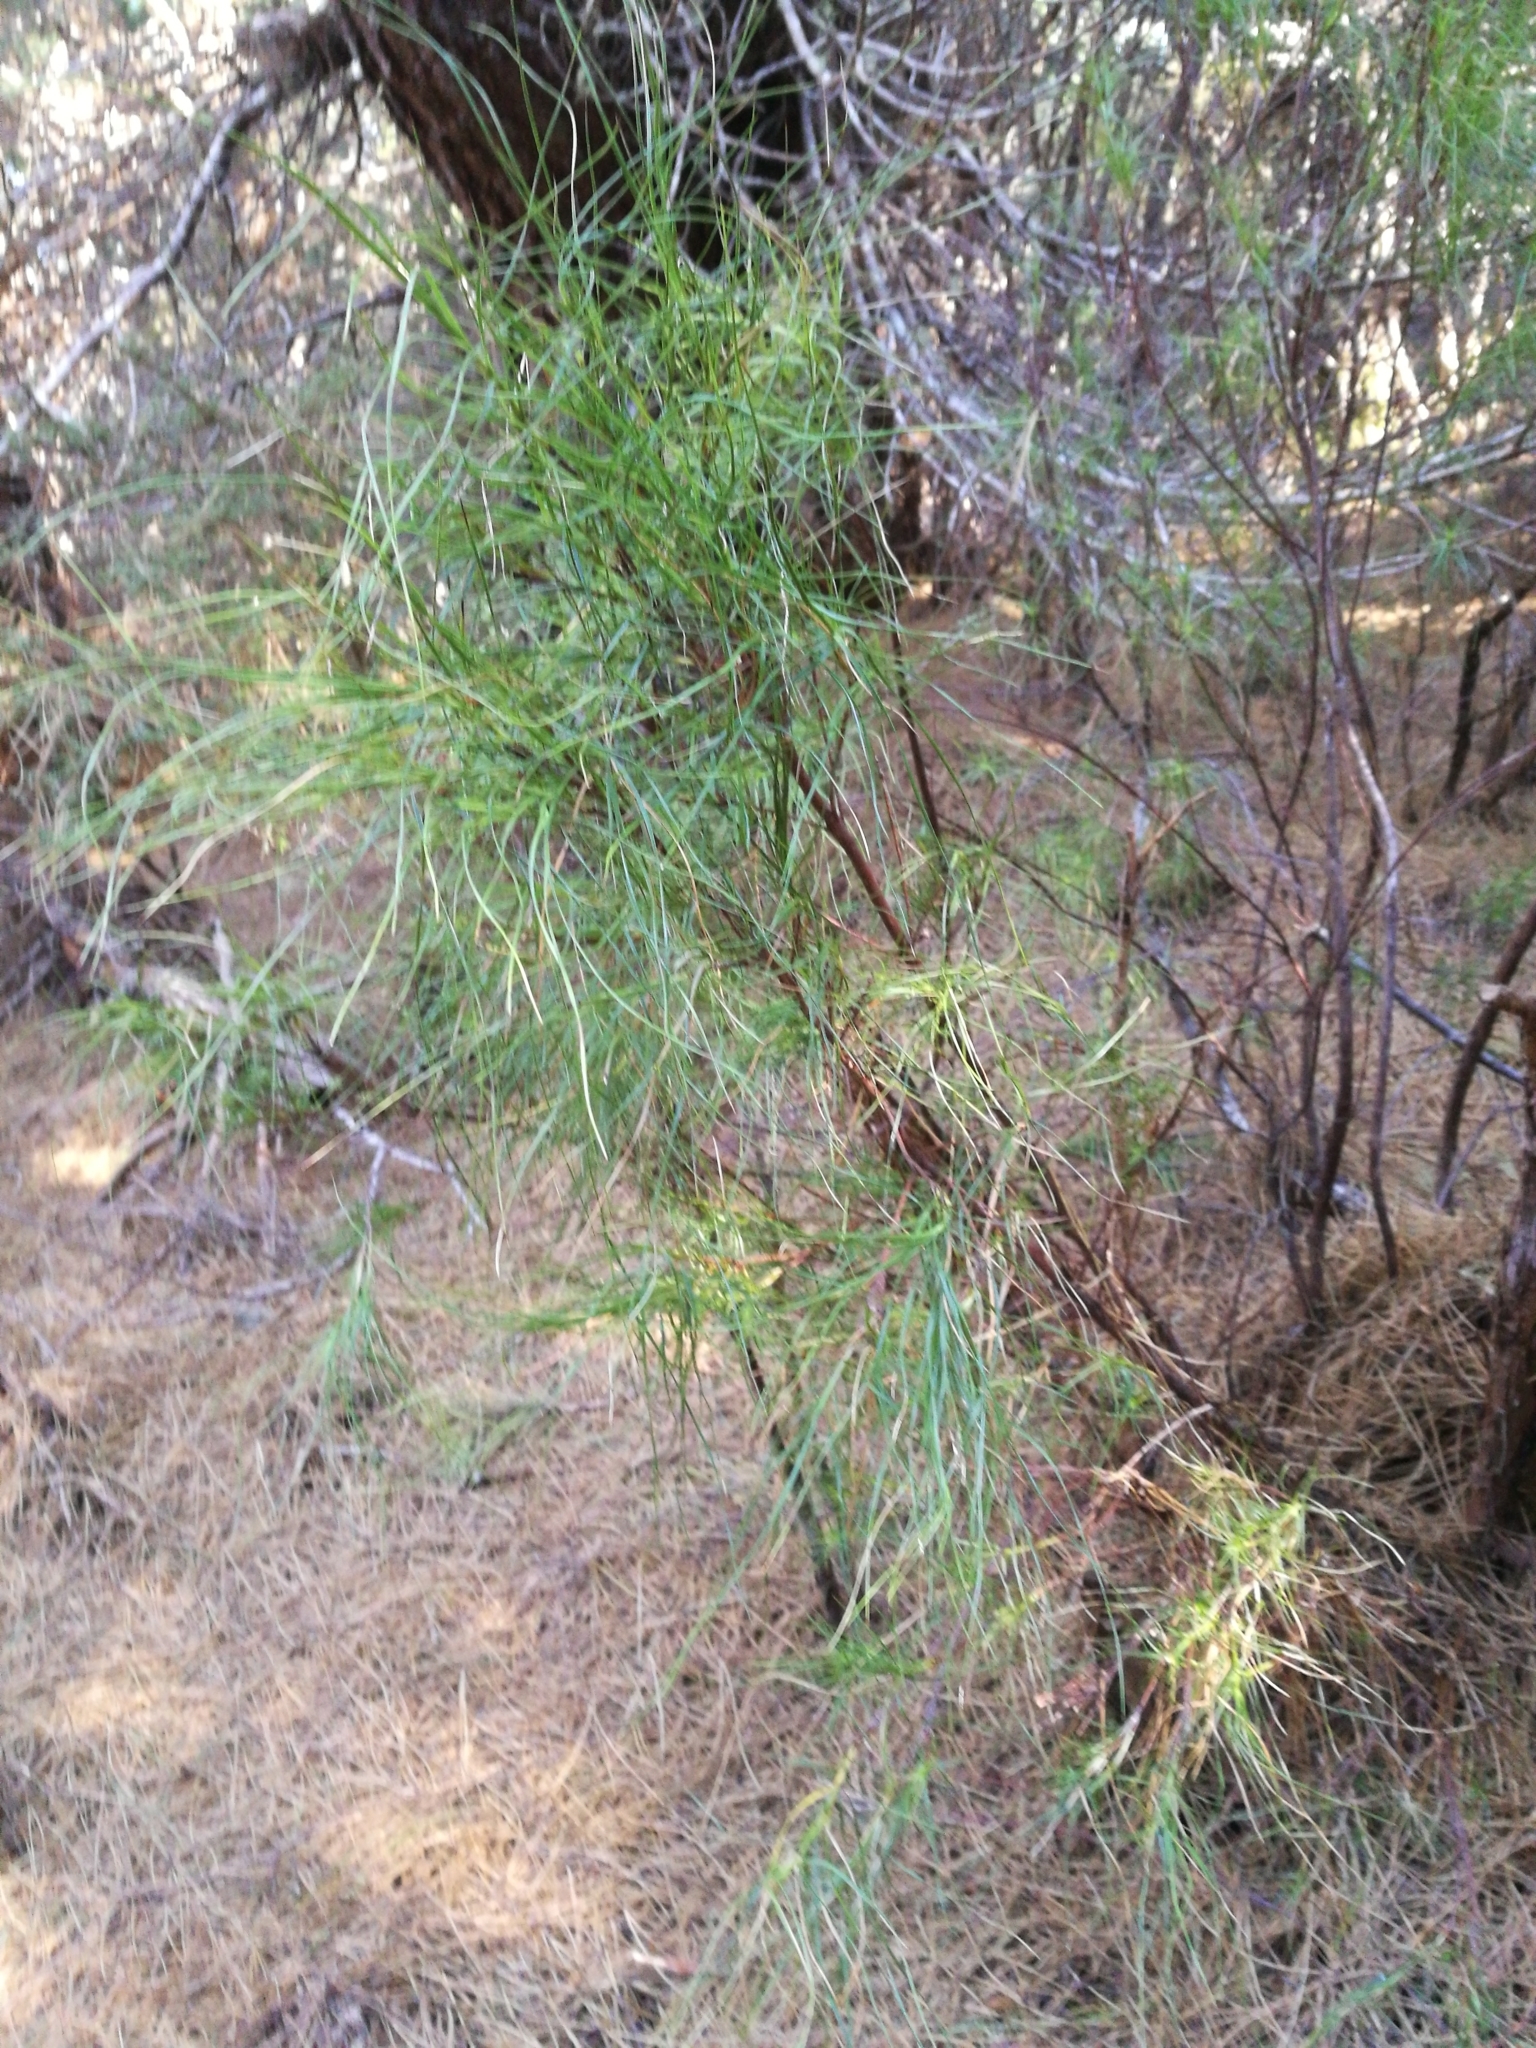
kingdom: Plantae
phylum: Tracheophyta
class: Magnoliopsida
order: Ericales
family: Ericaceae
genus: Dracophyllum
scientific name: Dracophyllum longifolium
